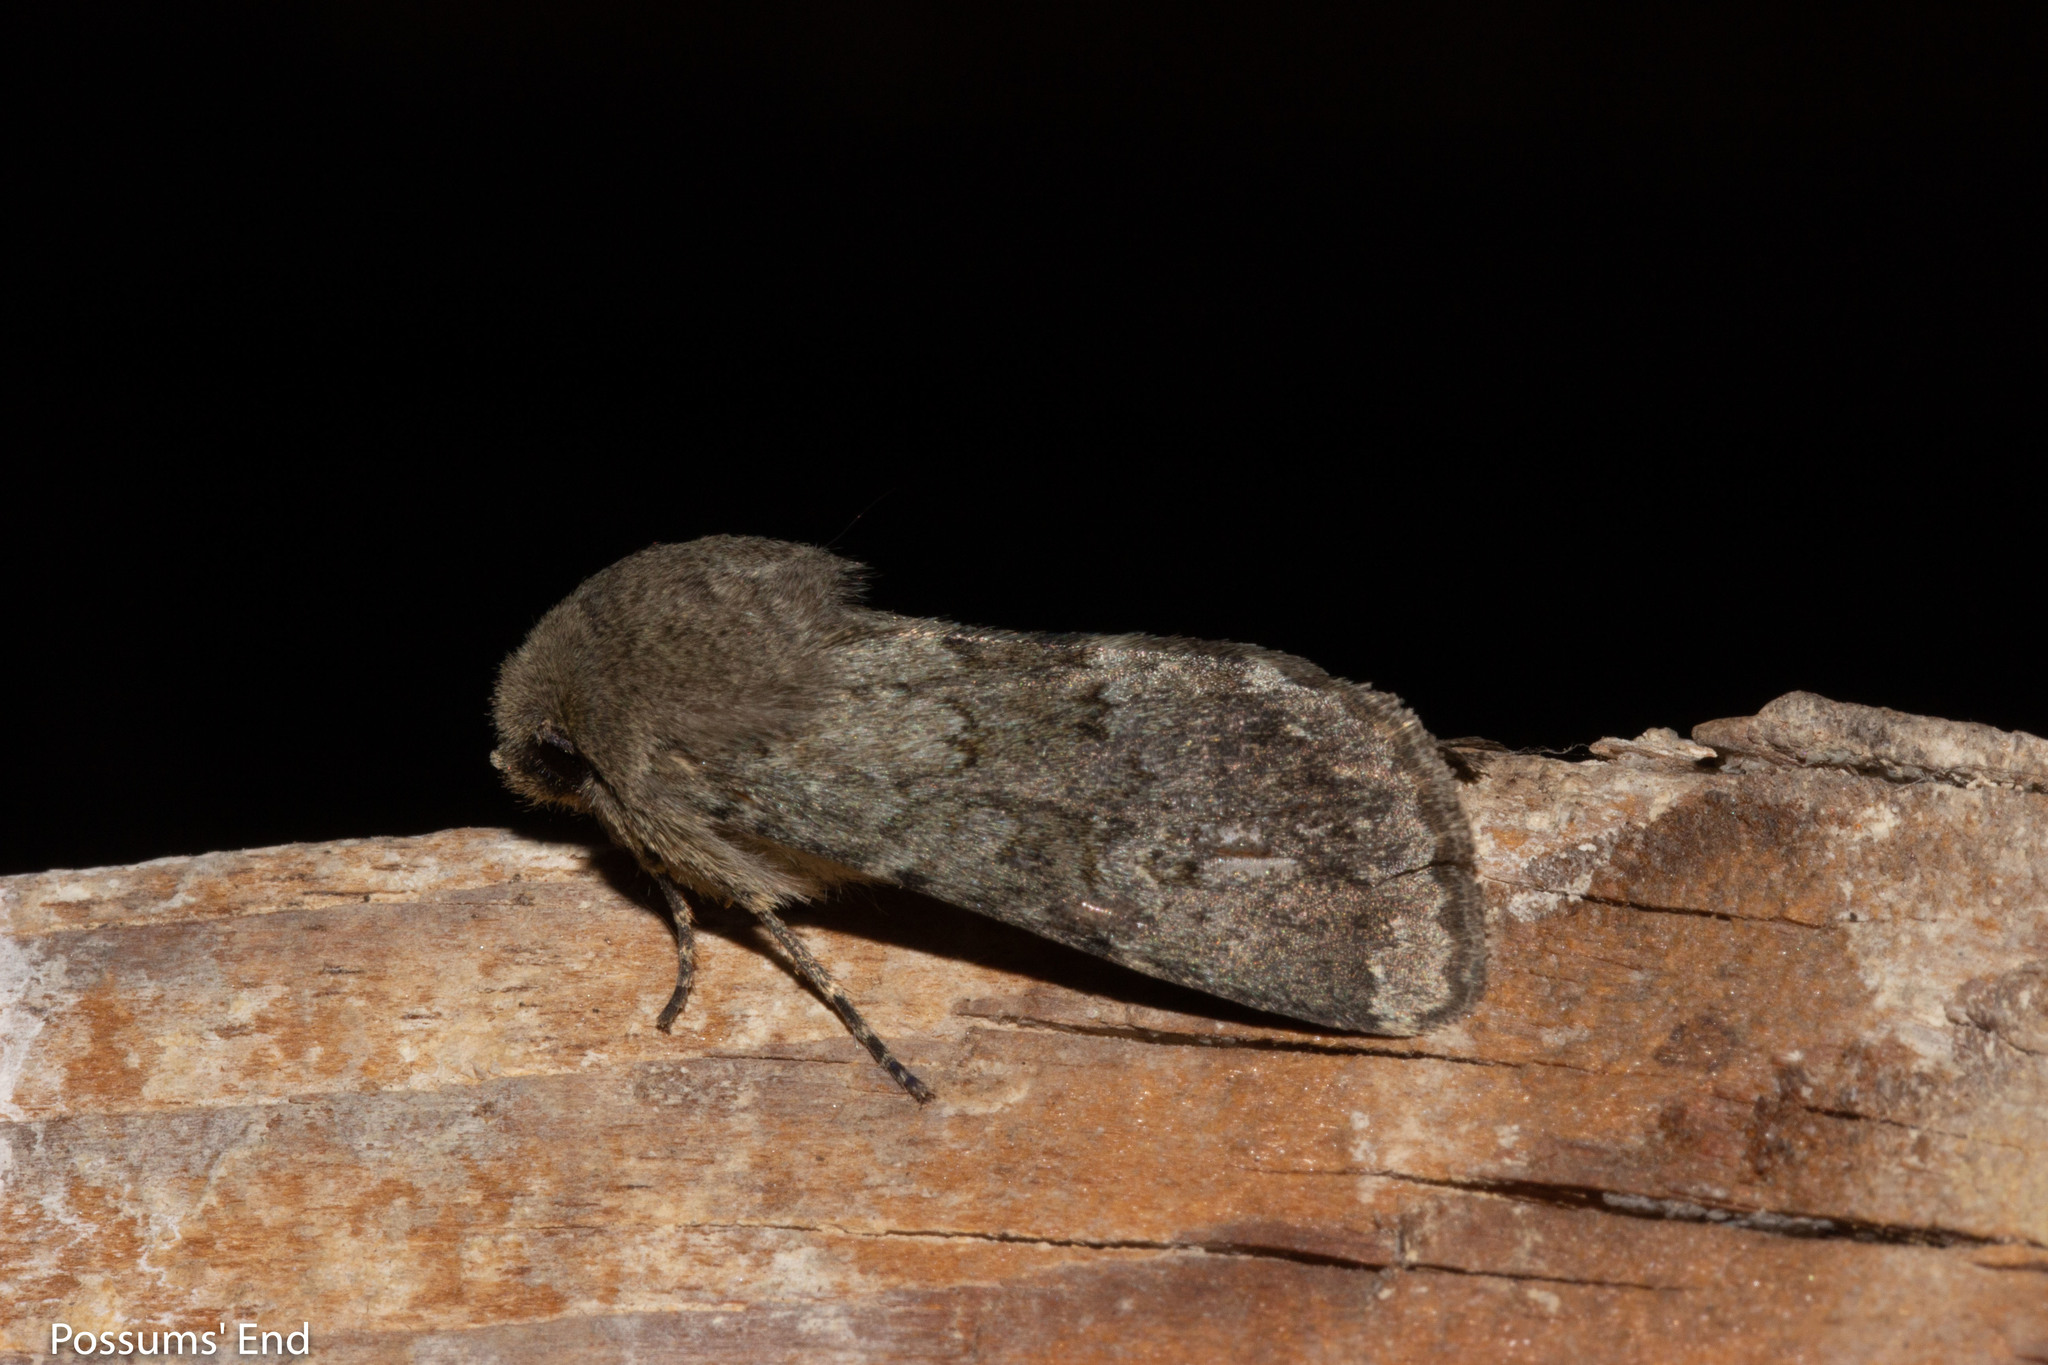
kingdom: Animalia
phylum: Arthropoda
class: Insecta
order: Lepidoptera
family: Noctuidae
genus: Ichneutica
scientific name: Ichneutica moderata
